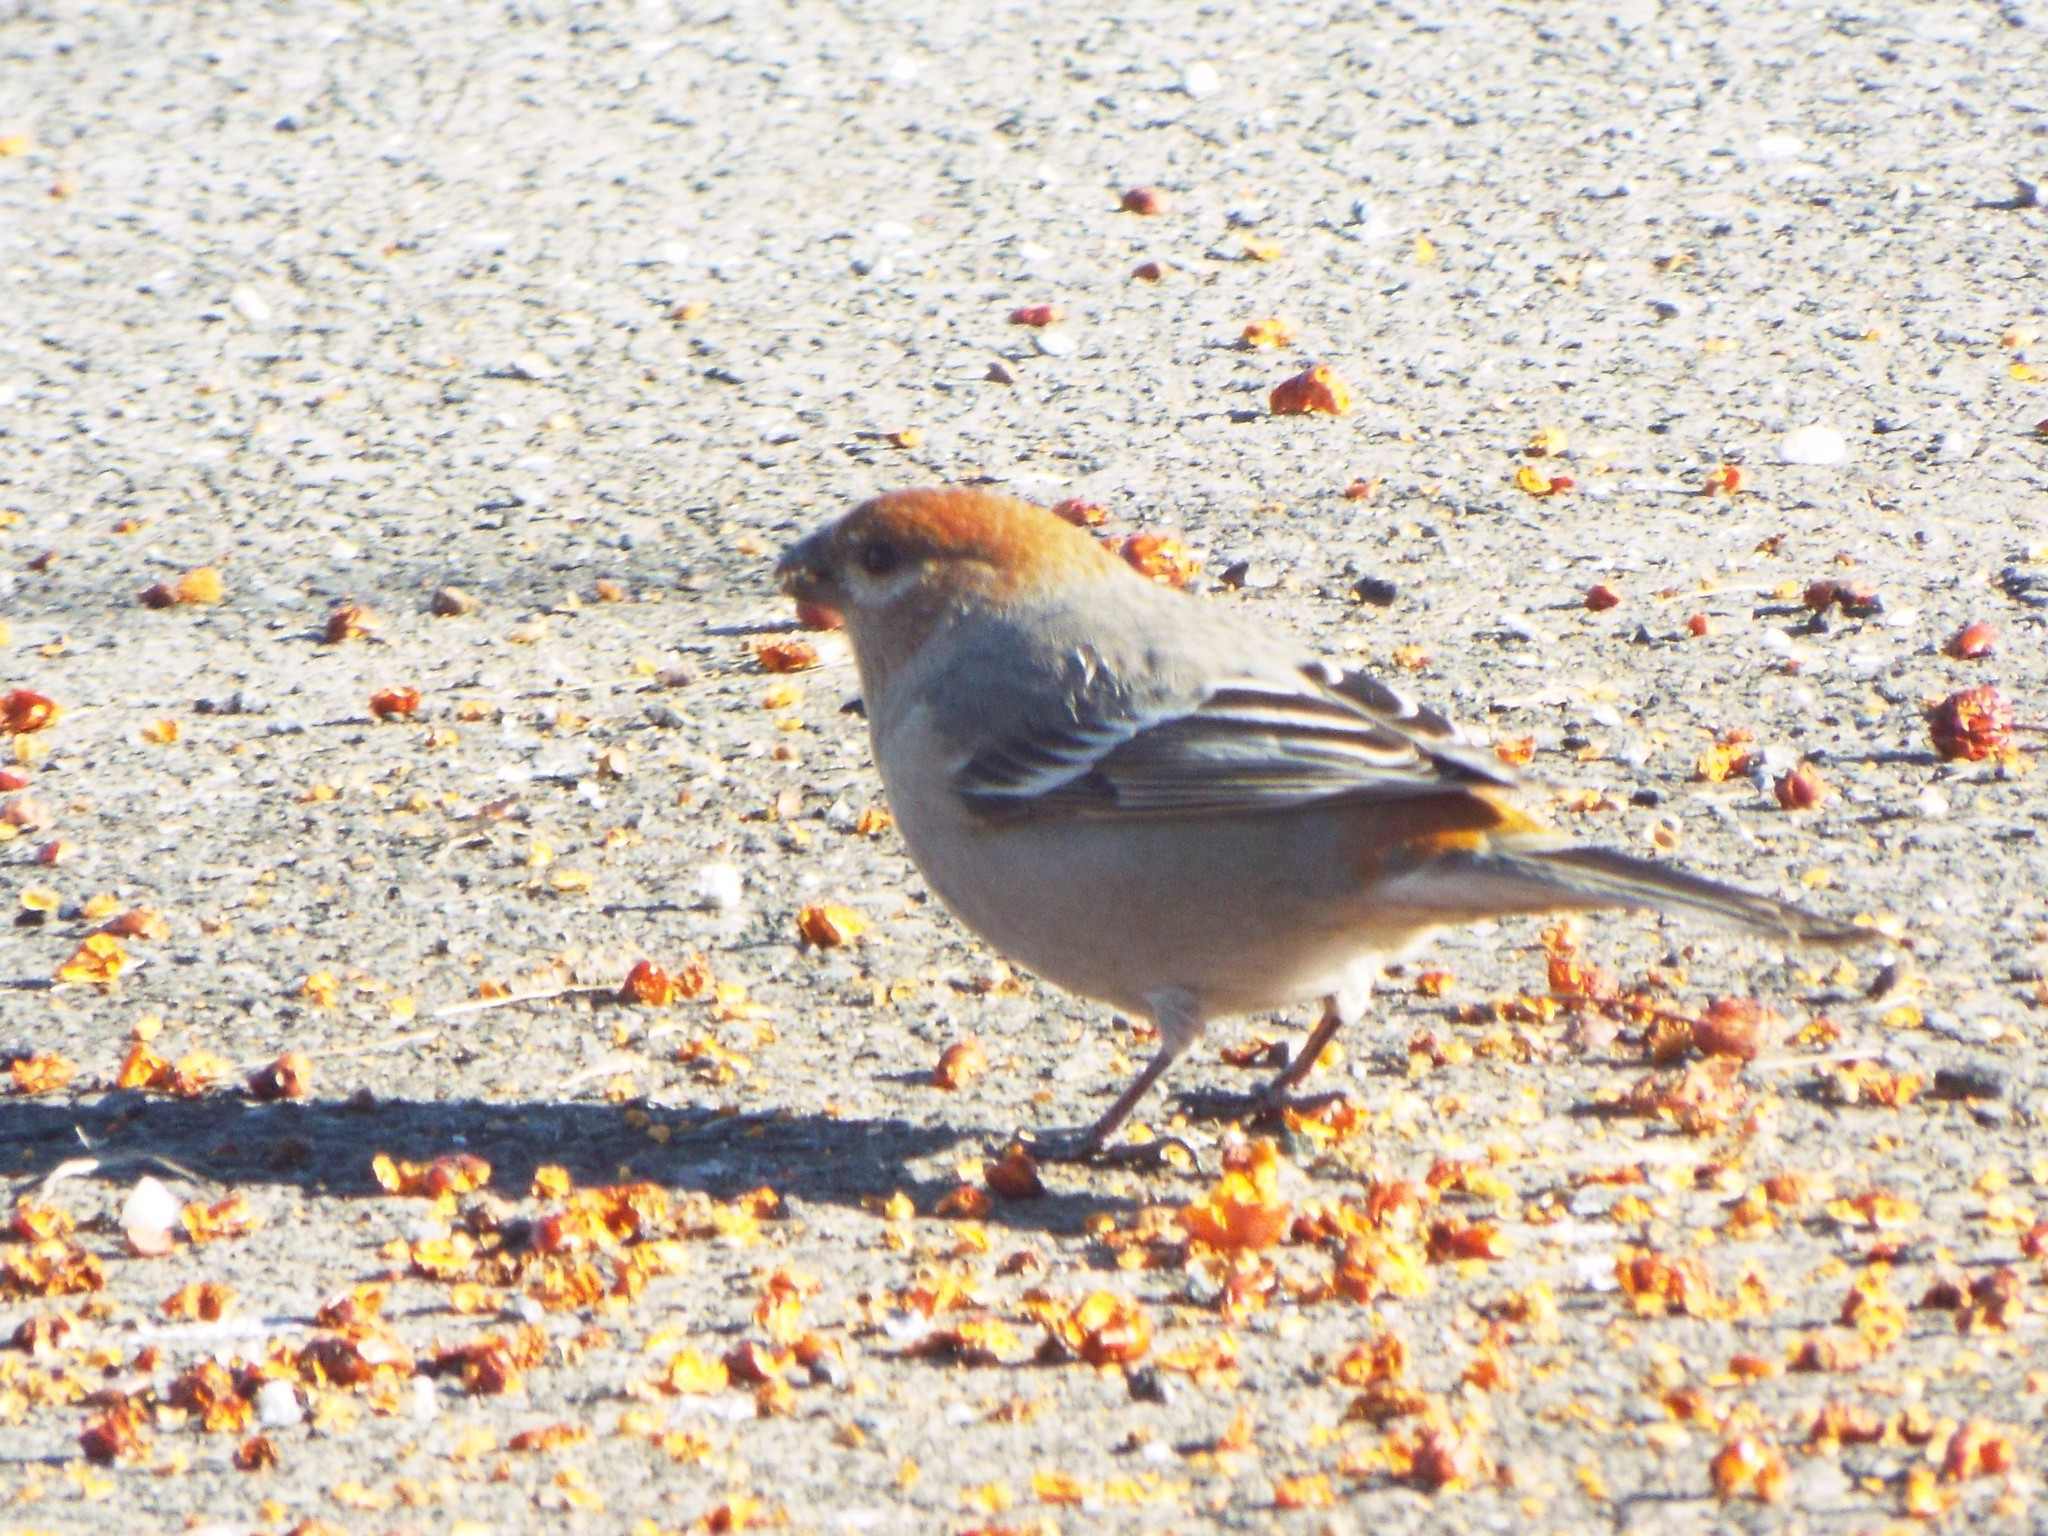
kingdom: Animalia
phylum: Chordata
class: Aves
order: Passeriformes
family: Fringillidae
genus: Pinicola
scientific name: Pinicola enucleator
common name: Pine grosbeak
